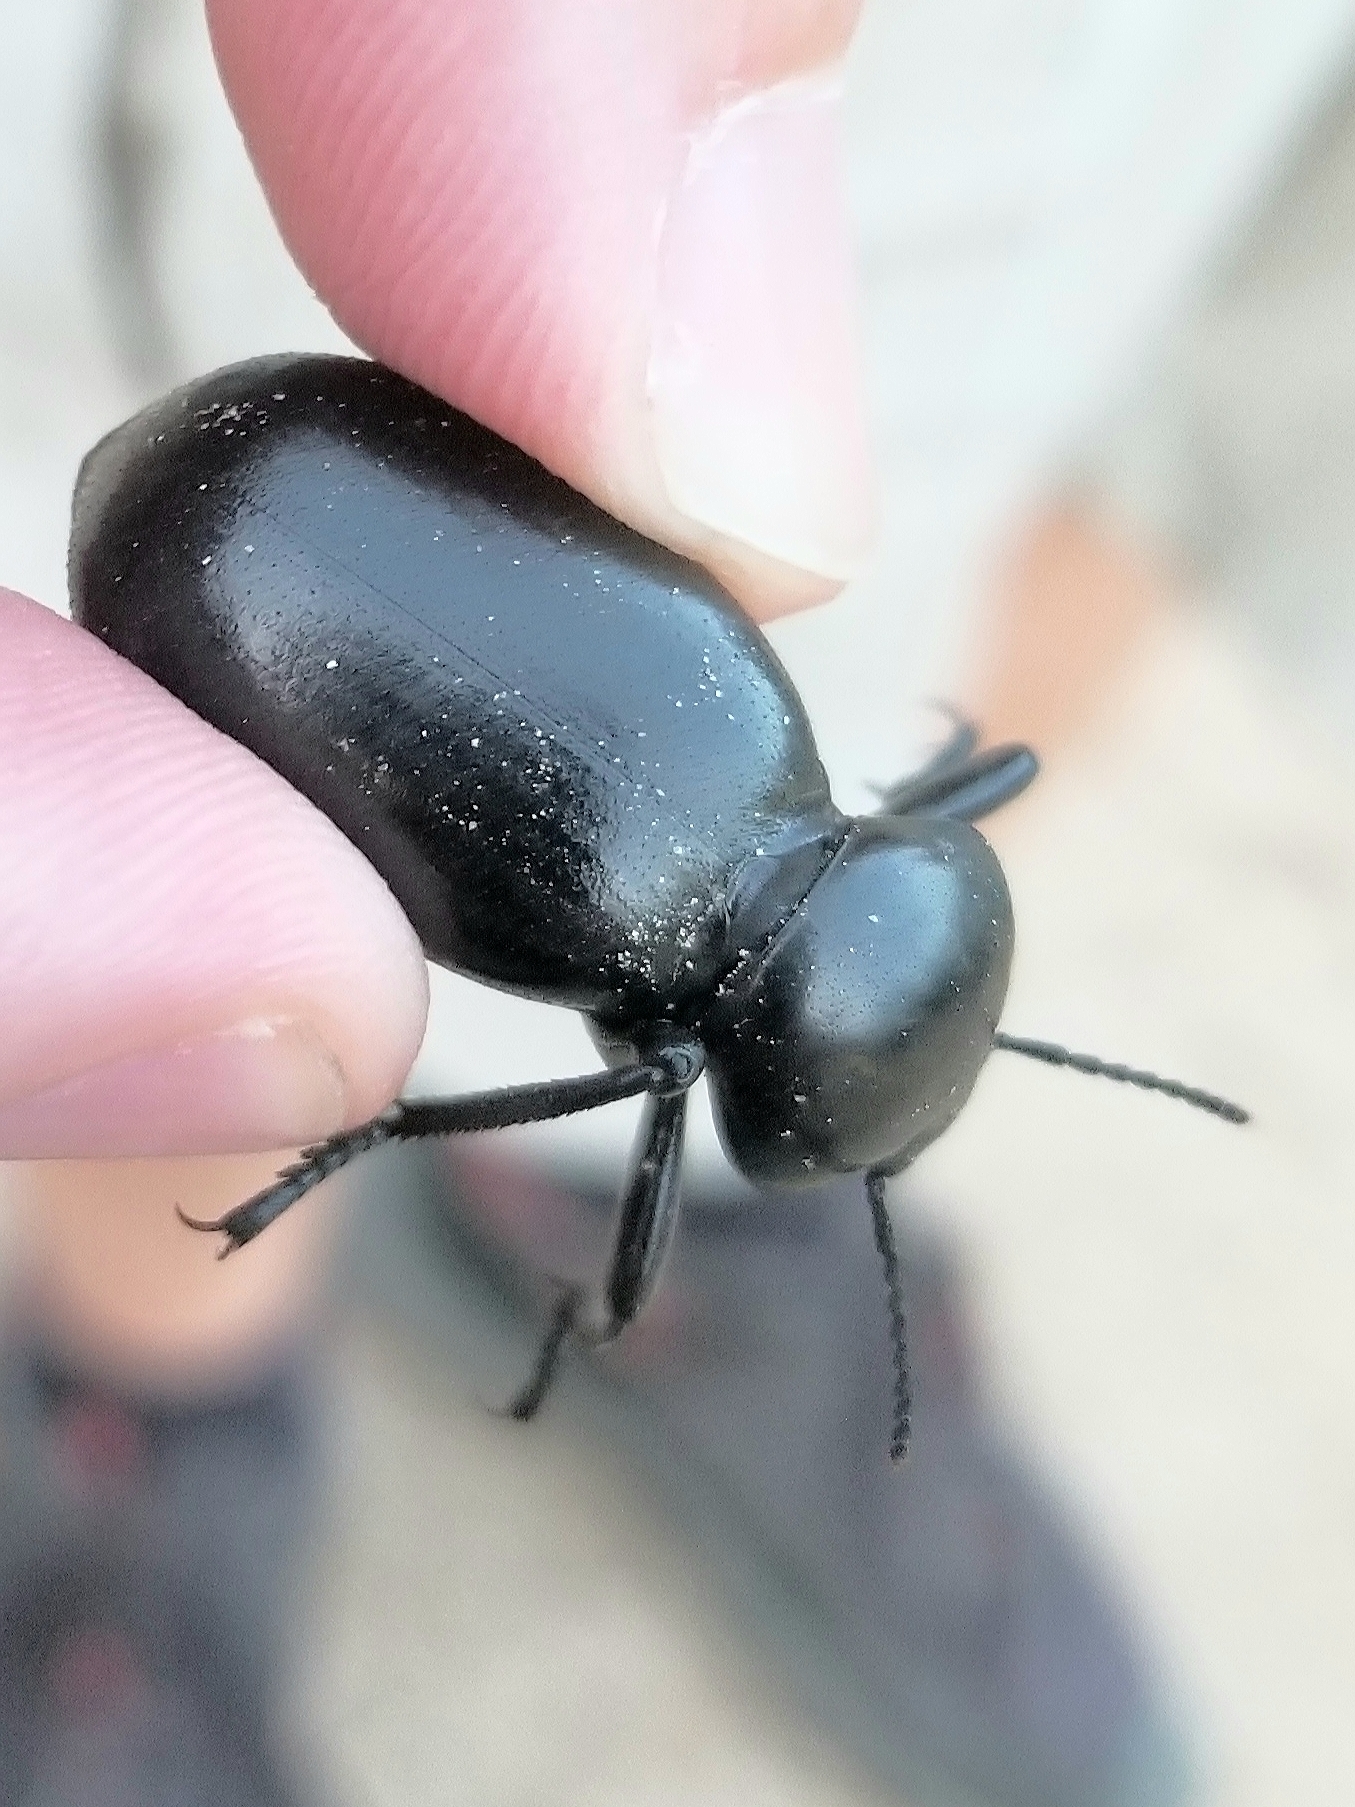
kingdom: Animalia
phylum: Arthropoda
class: Insecta
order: Coleoptera
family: Tenebrionidae
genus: Eleodes
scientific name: Eleodes grandicollis
